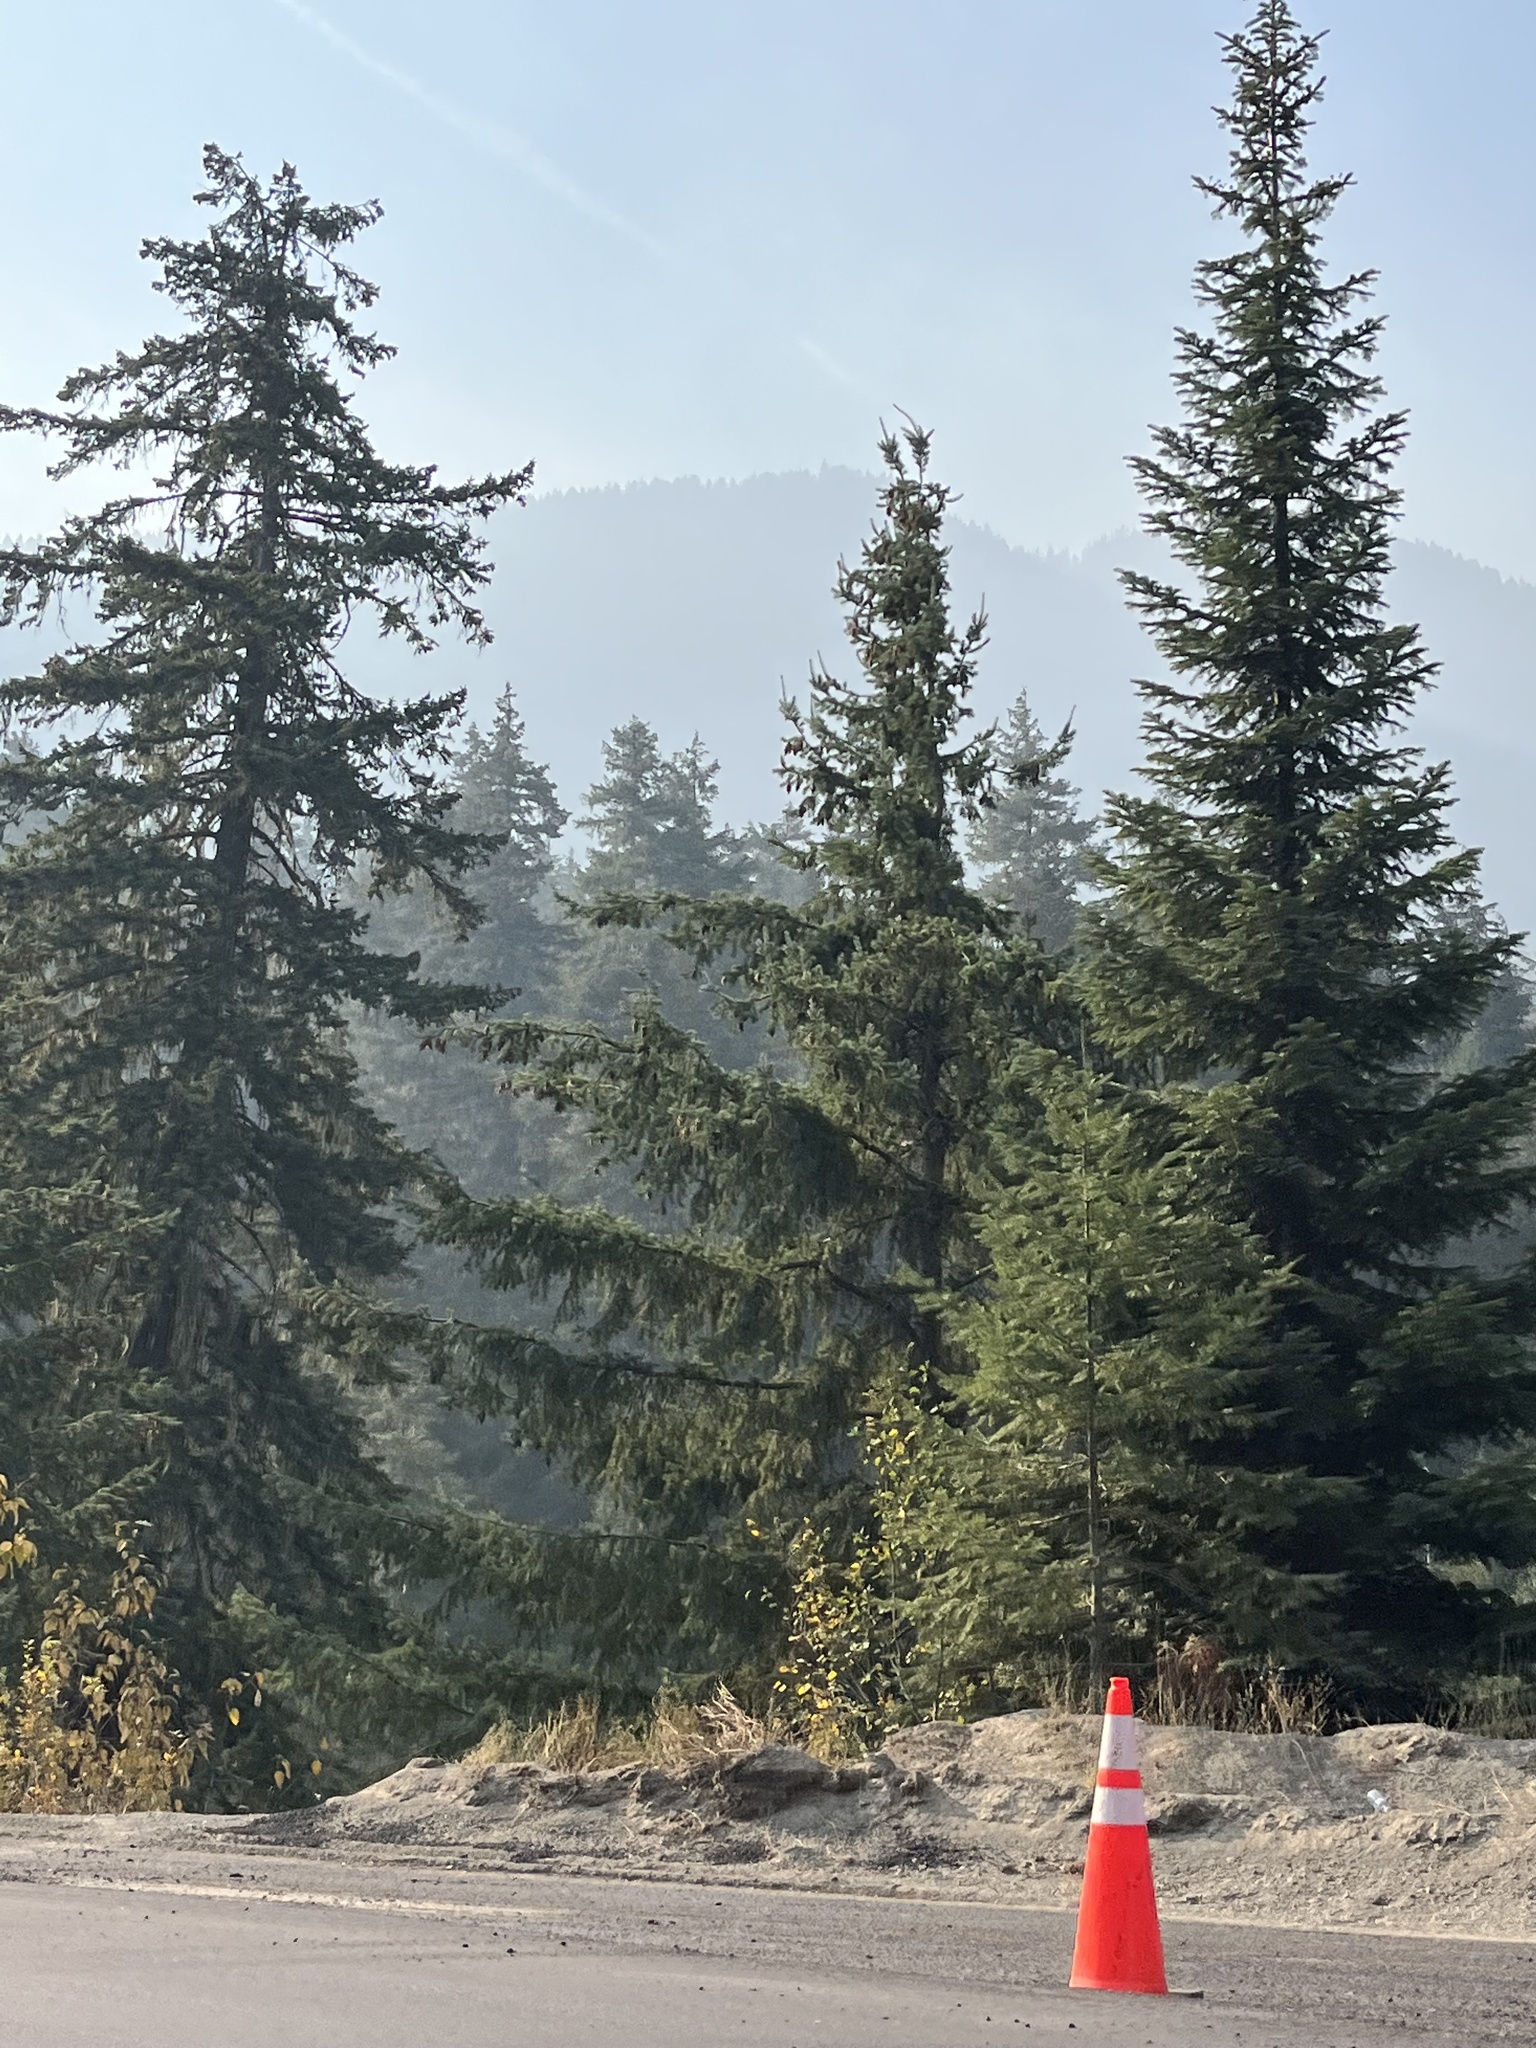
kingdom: Plantae
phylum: Tracheophyta
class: Pinopsida
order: Pinales
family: Pinaceae
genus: Pseudotsuga
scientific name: Pseudotsuga menziesii
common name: Douglas fir
